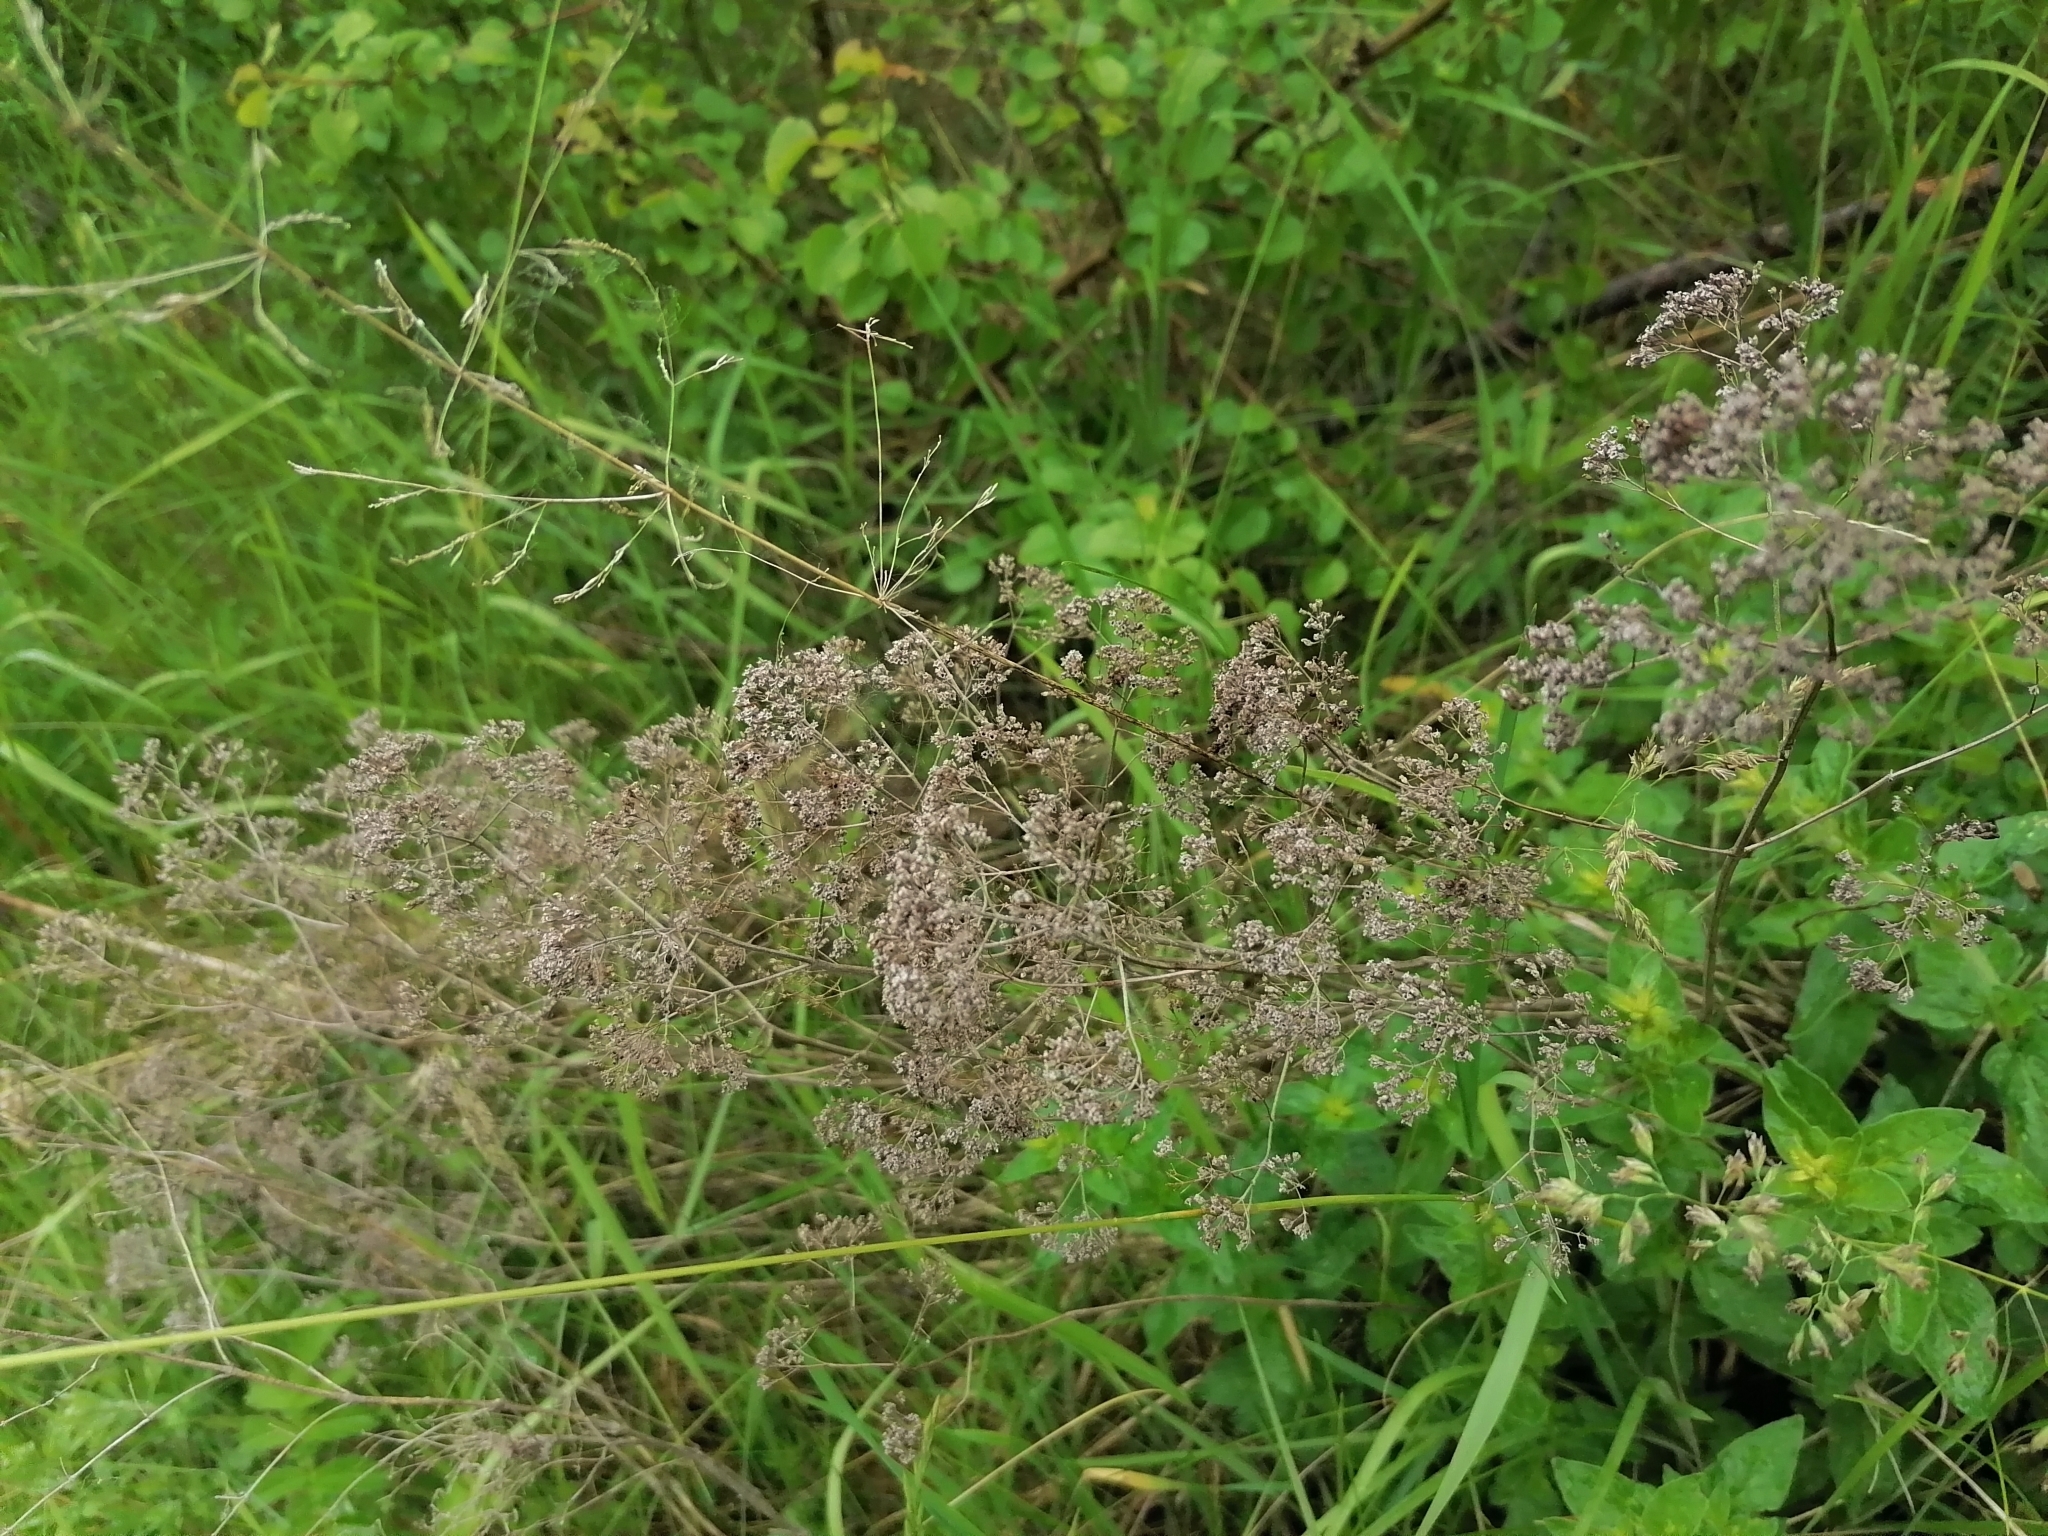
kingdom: Plantae
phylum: Tracheophyta
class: Magnoliopsida
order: Caryophyllales
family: Caryophyllaceae
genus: Gypsophila
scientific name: Gypsophila paniculata
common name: Baby's-breath
